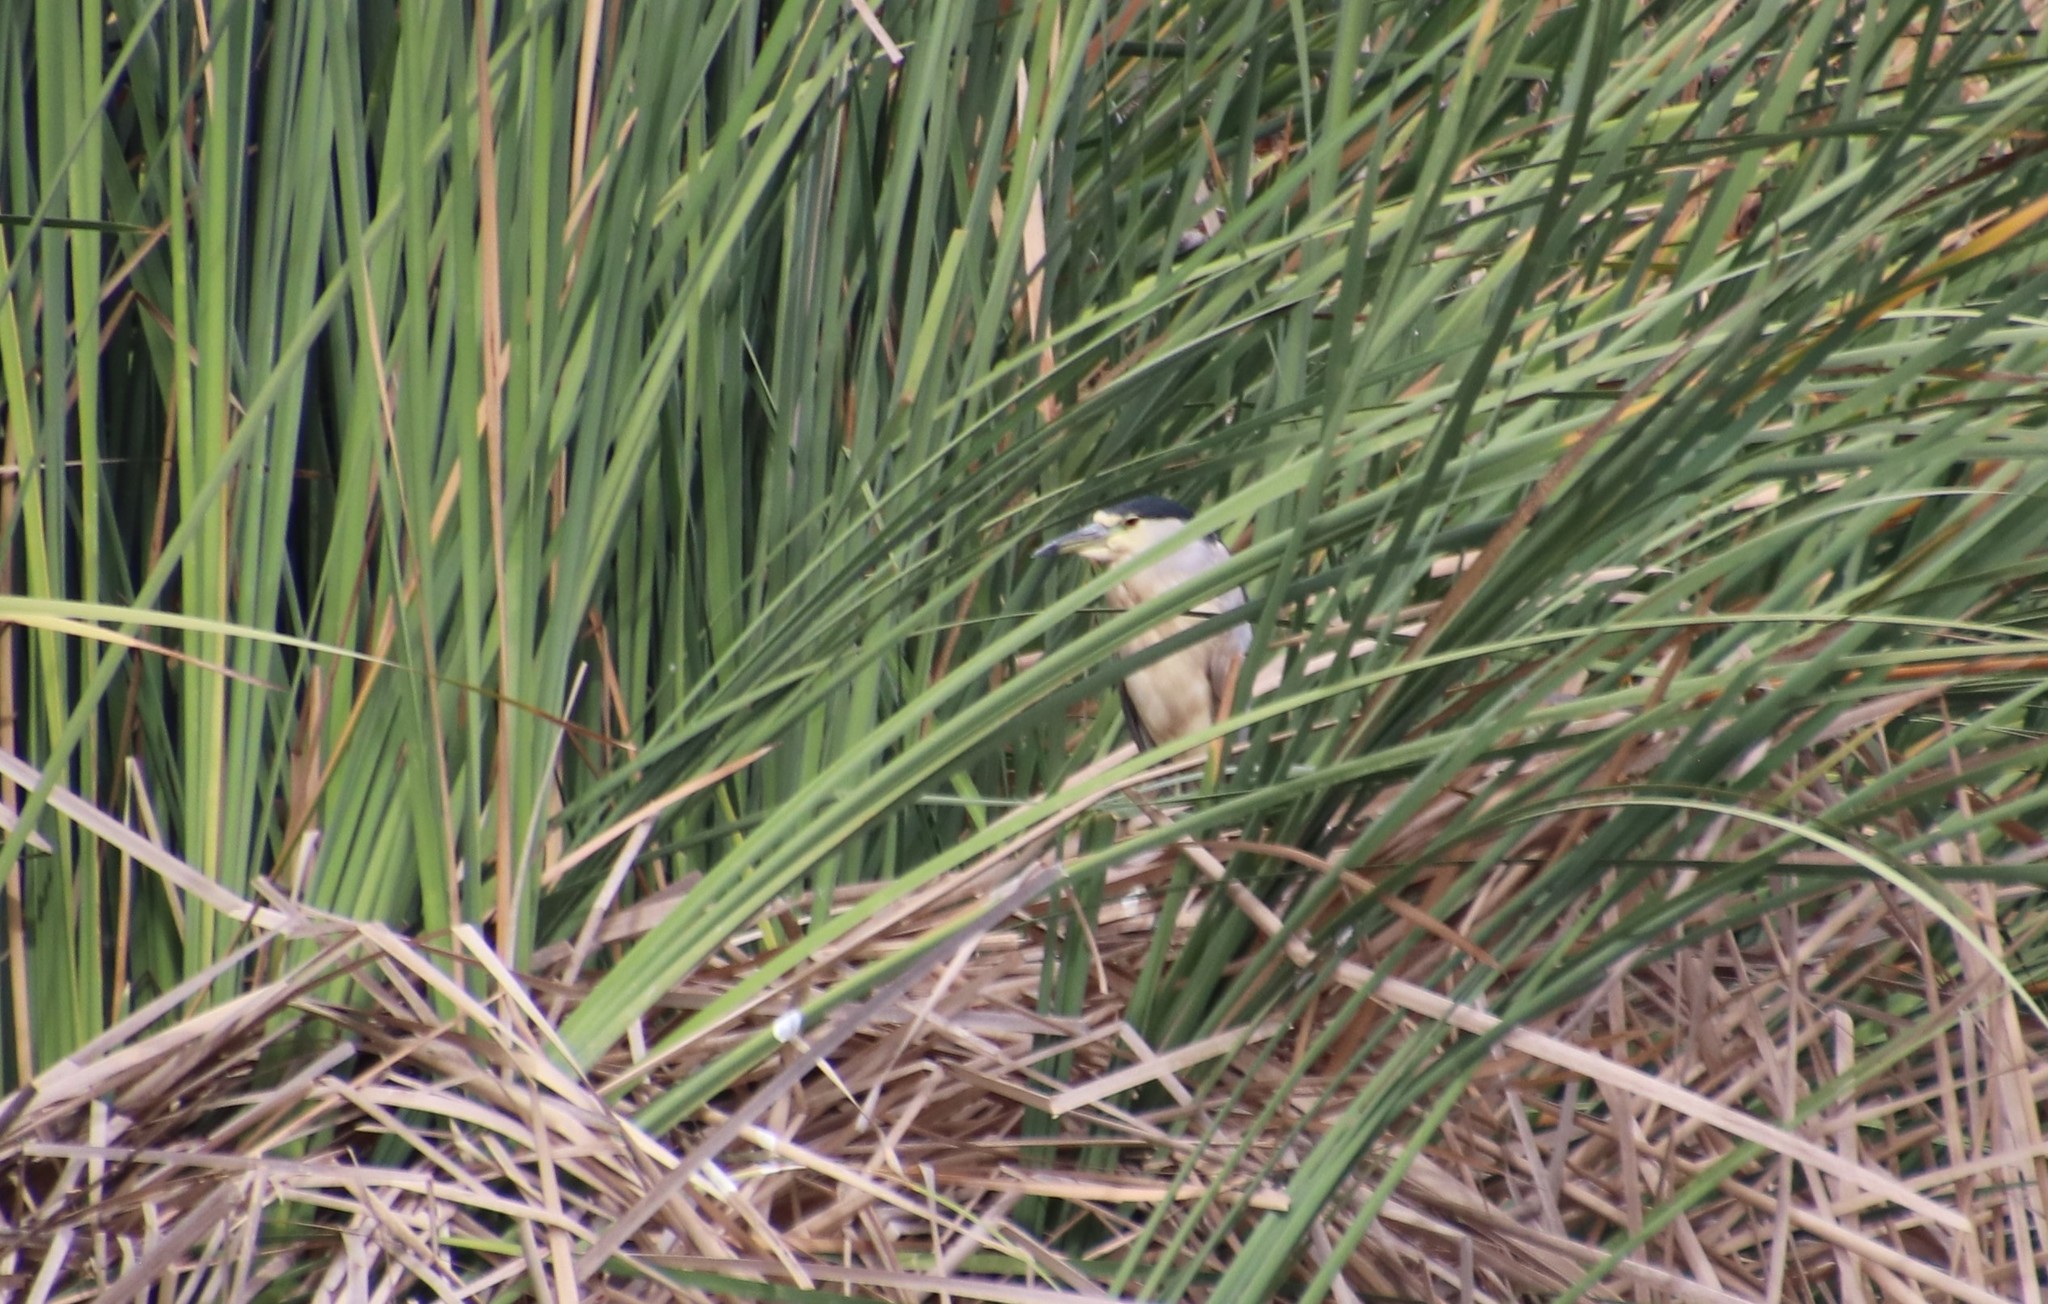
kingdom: Animalia
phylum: Chordata
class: Aves
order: Pelecaniformes
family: Ardeidae
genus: Nycticorax
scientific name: Nycticorax nycticorax
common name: Black-crowned night heron
